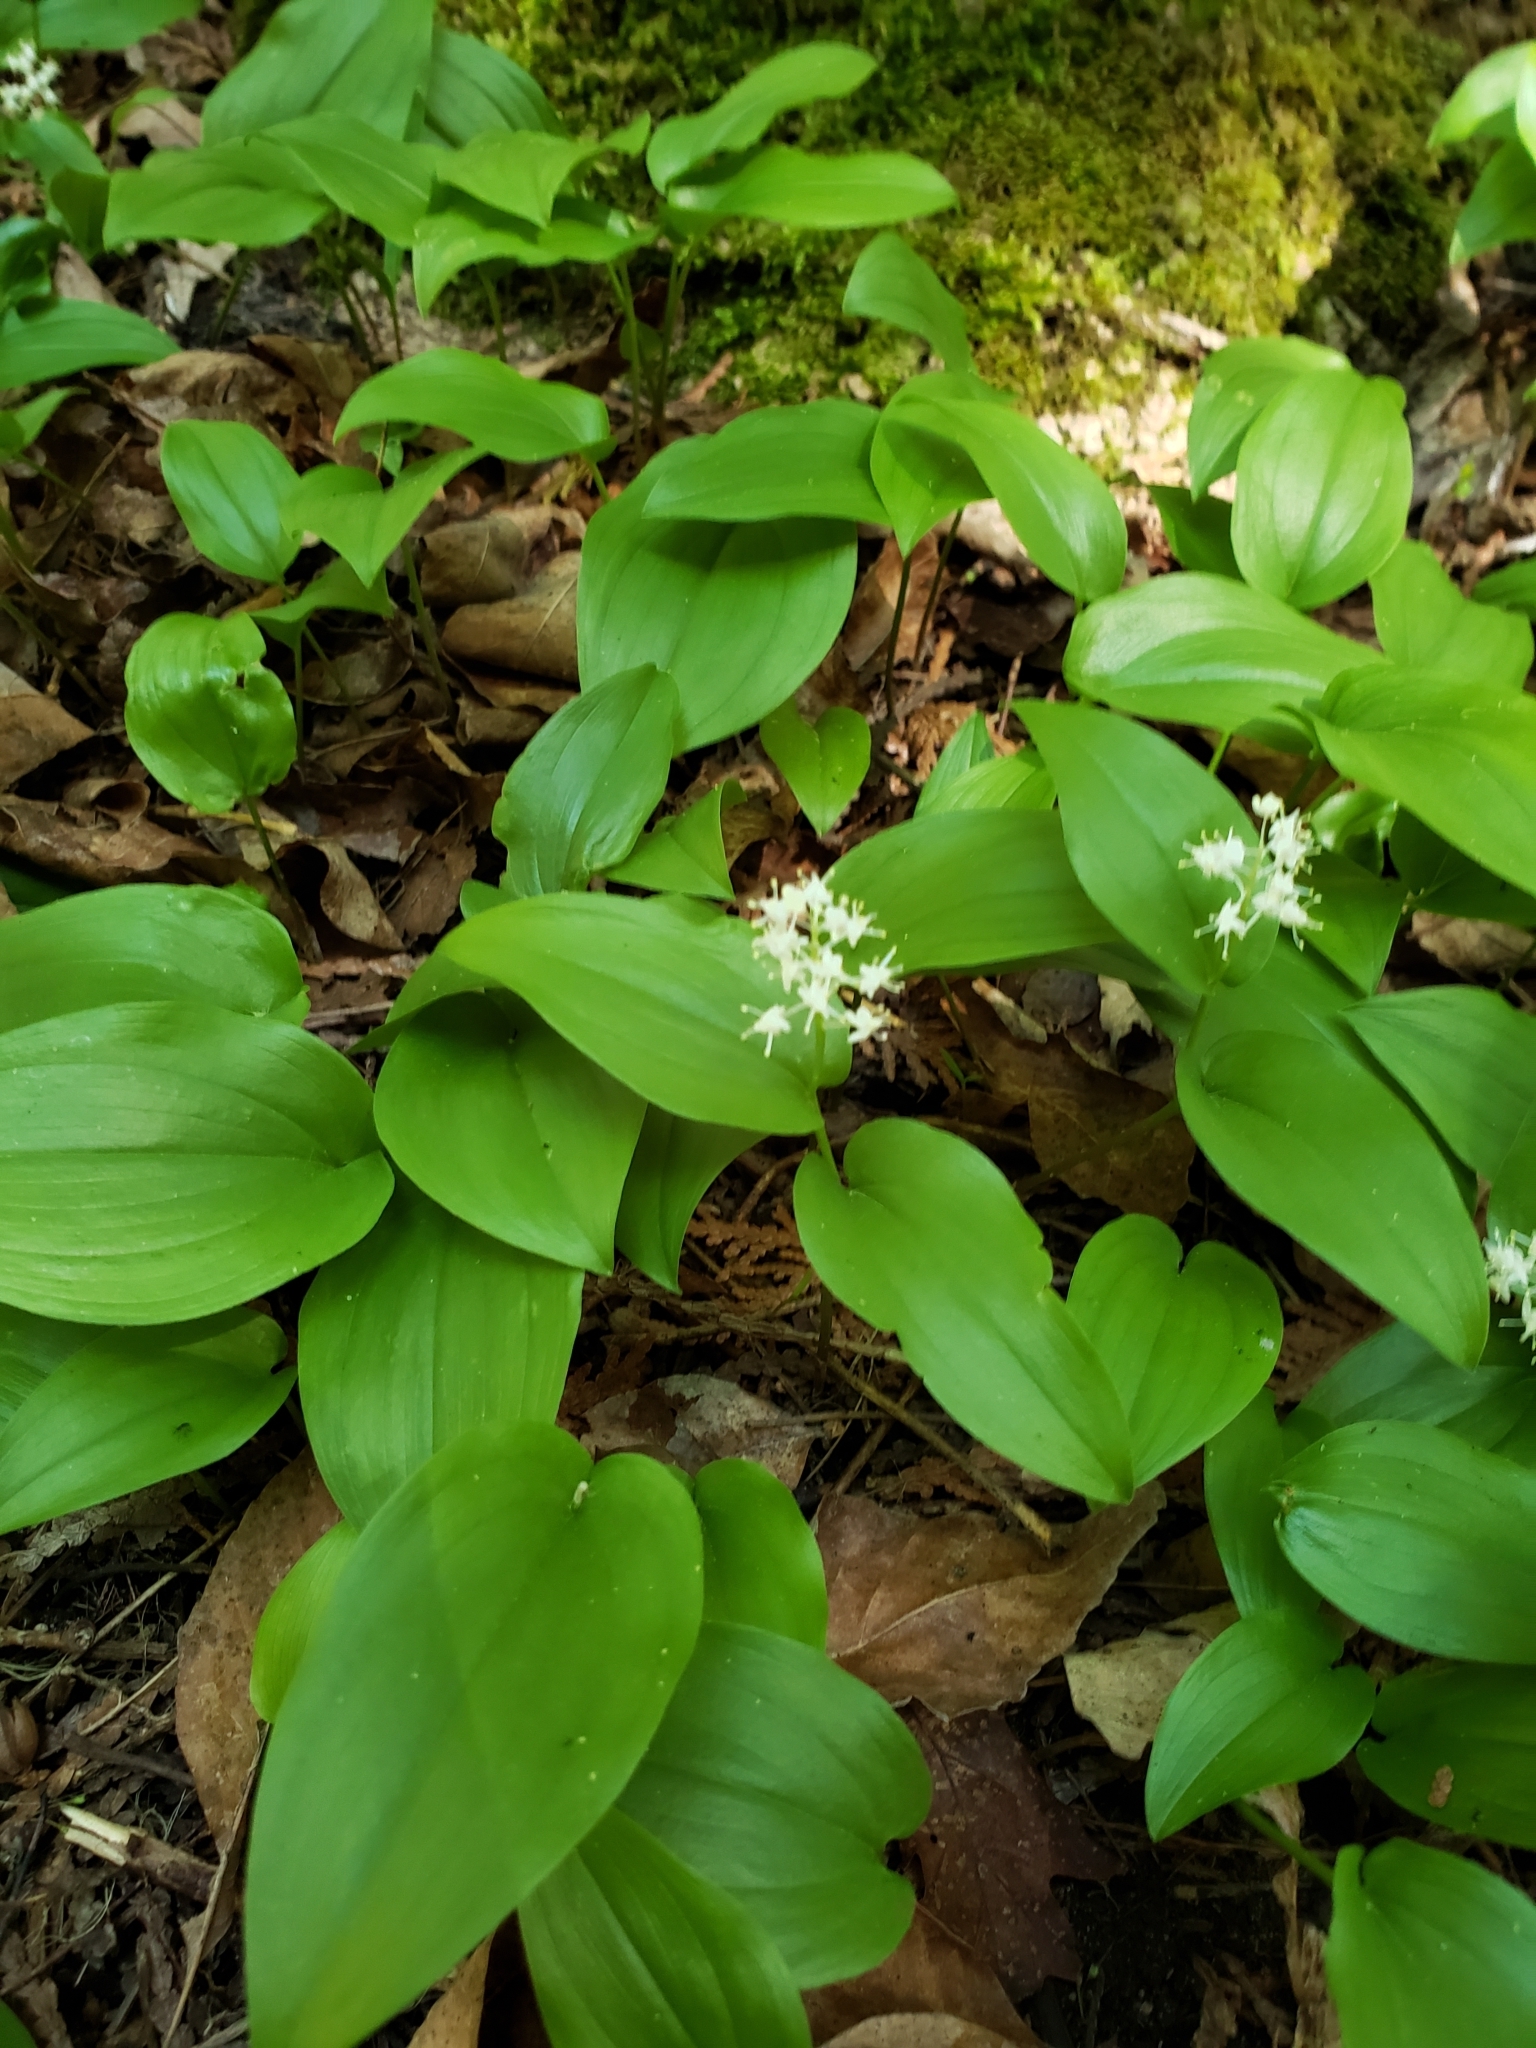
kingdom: Plantae
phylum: Tracheophyta
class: Liliopsida
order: Asparagales
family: Asparagaceae
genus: Maianthemum
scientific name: Maianthemum canadense
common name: False lily-of-the-valley
